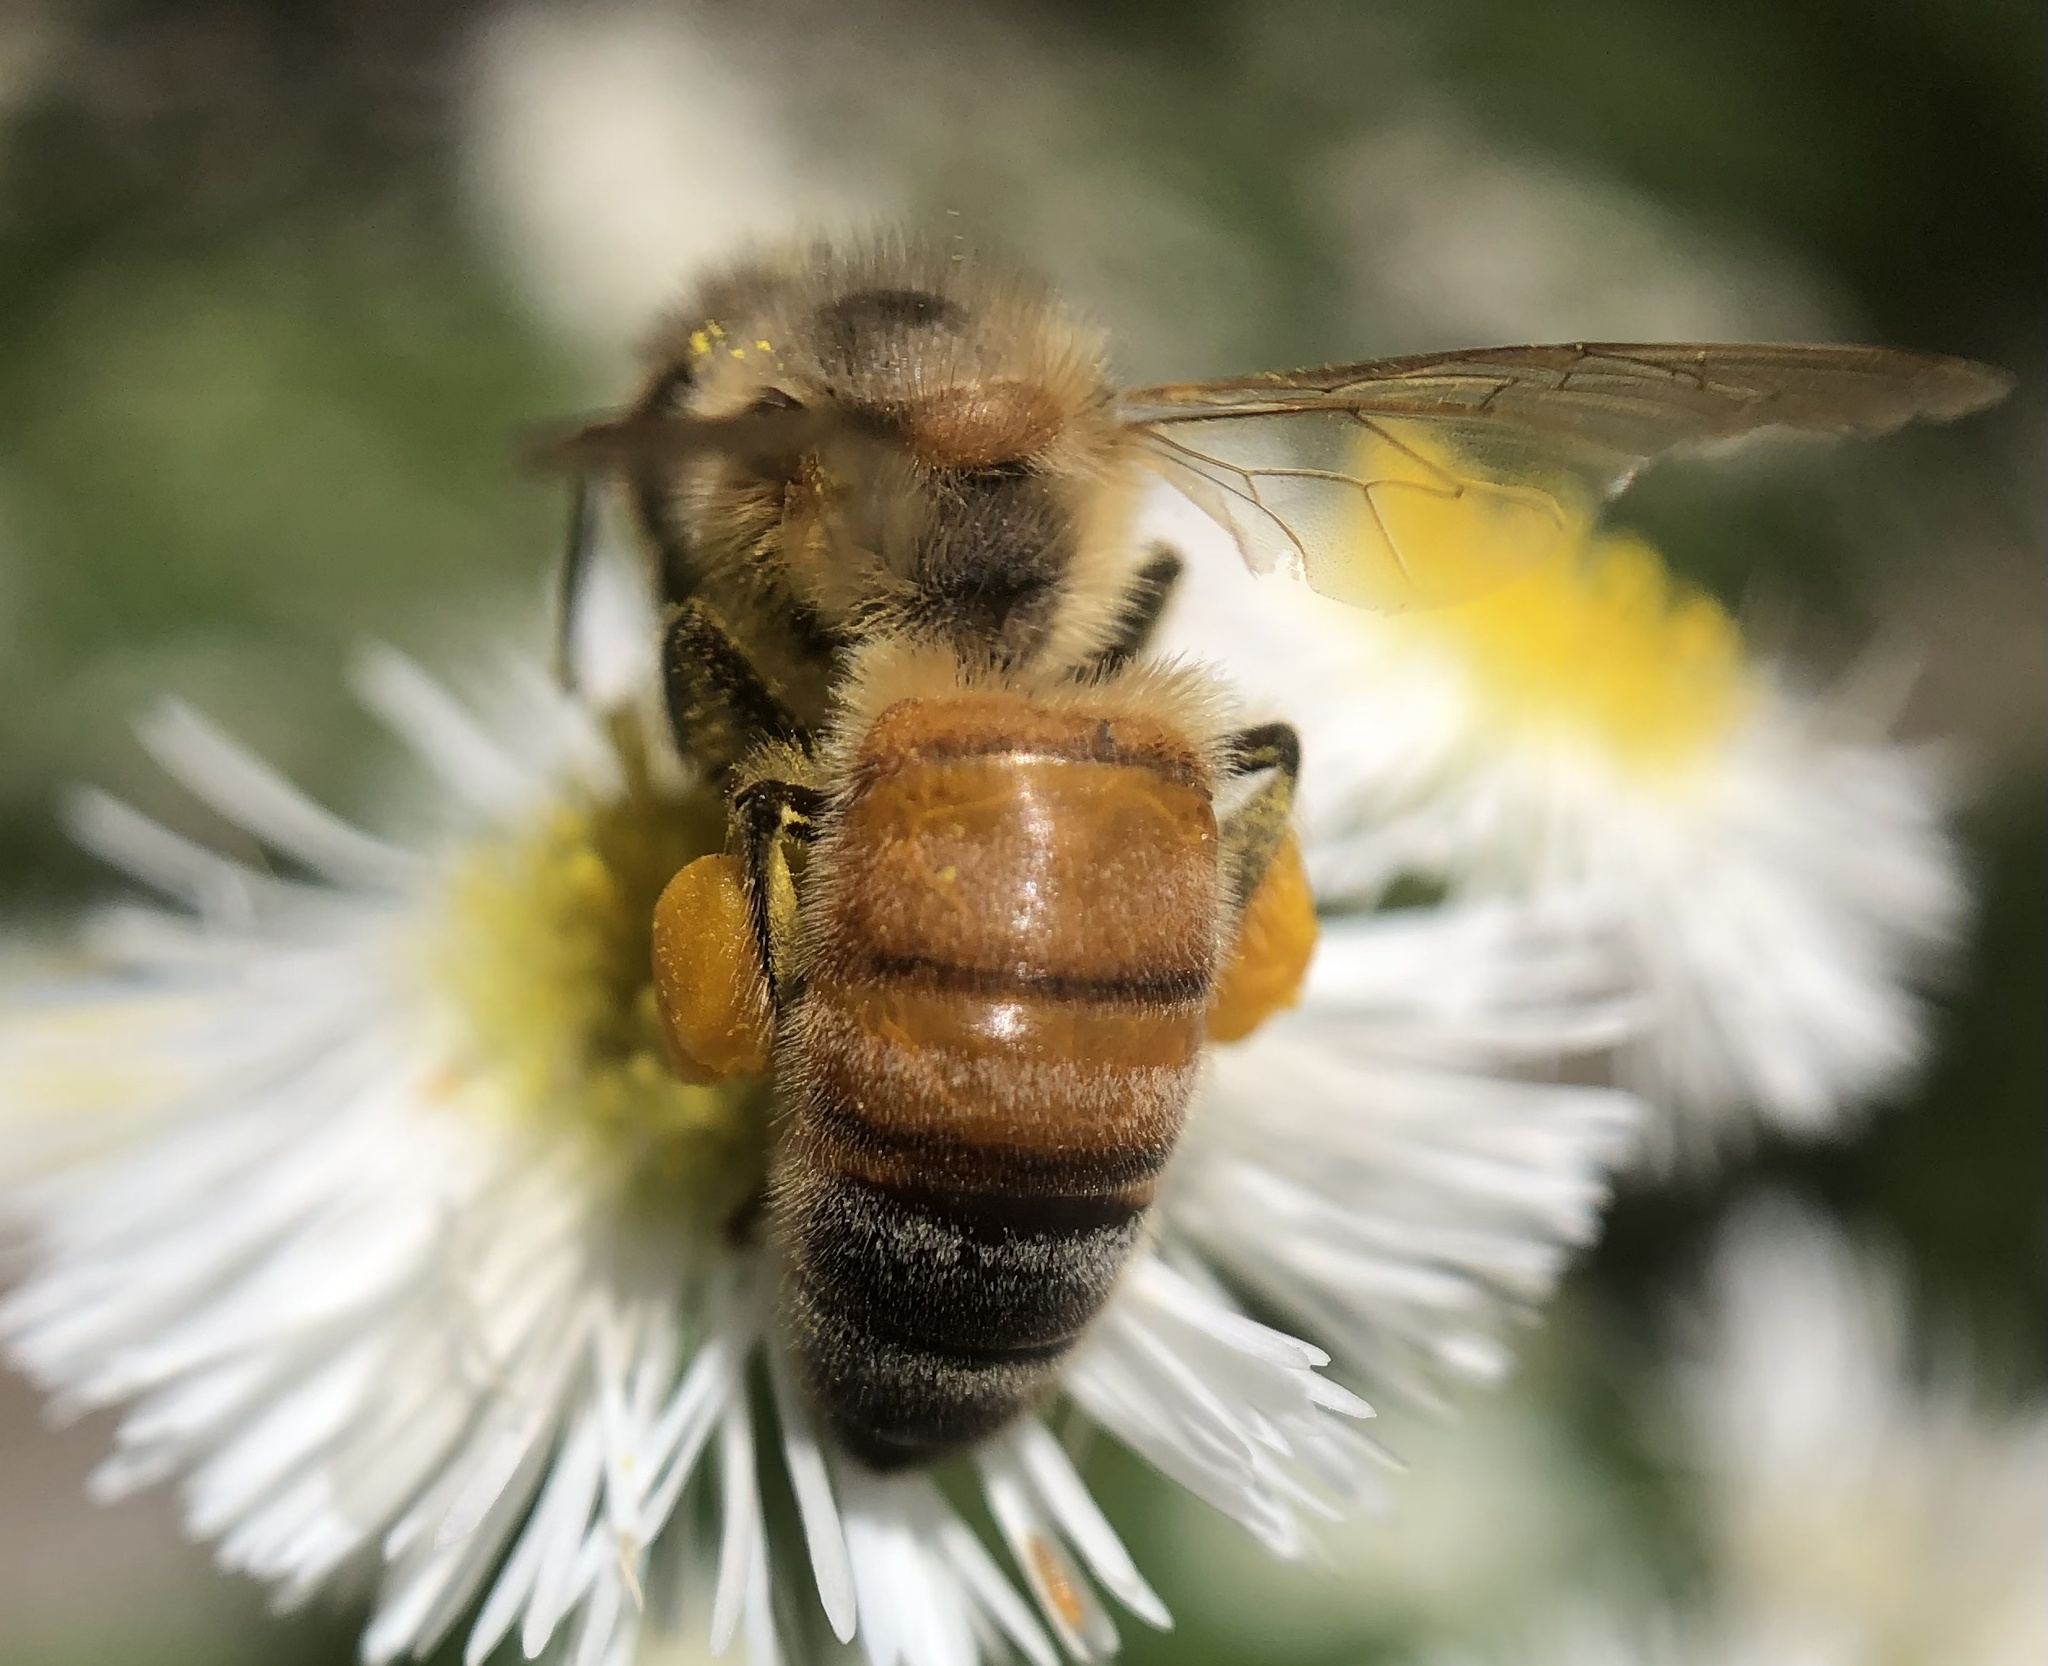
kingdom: Animalia
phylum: Arthropoda
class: Insecta
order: Hymenoptera
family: Apidae
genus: Apis
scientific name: Apis mellifera
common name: Honey bee
